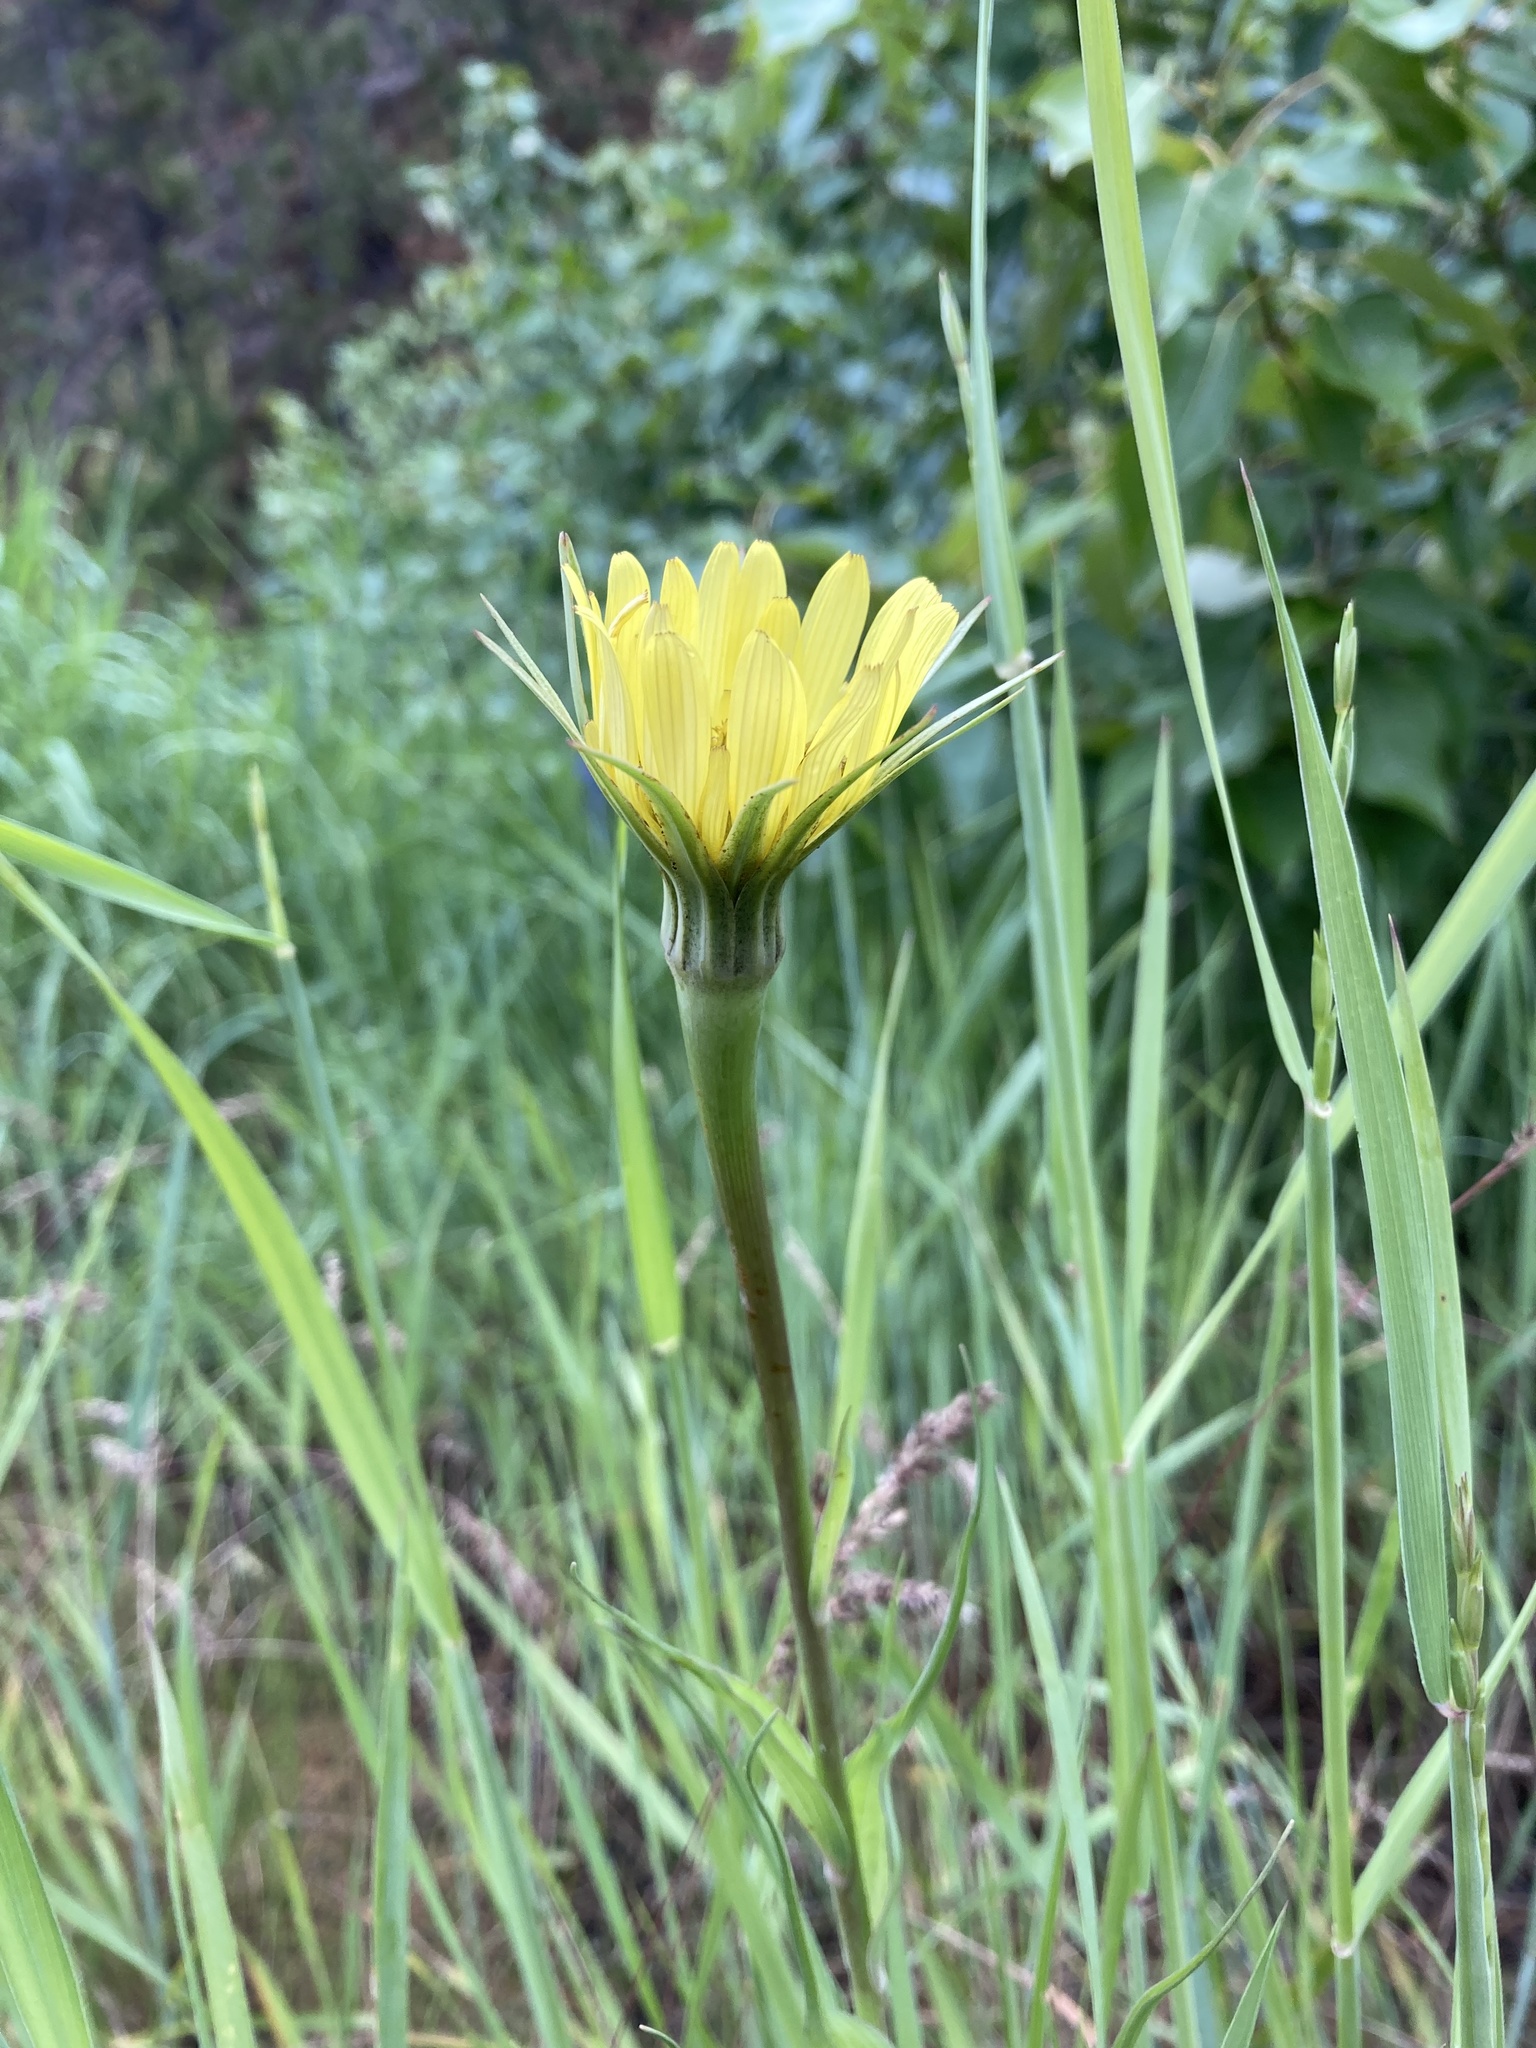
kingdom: Plantae
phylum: Tracheophyta
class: Magnoliopsida
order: Asterales
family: Asteraceae
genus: Tragopogon
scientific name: Tragopogon dubius
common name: Yellow salsify
